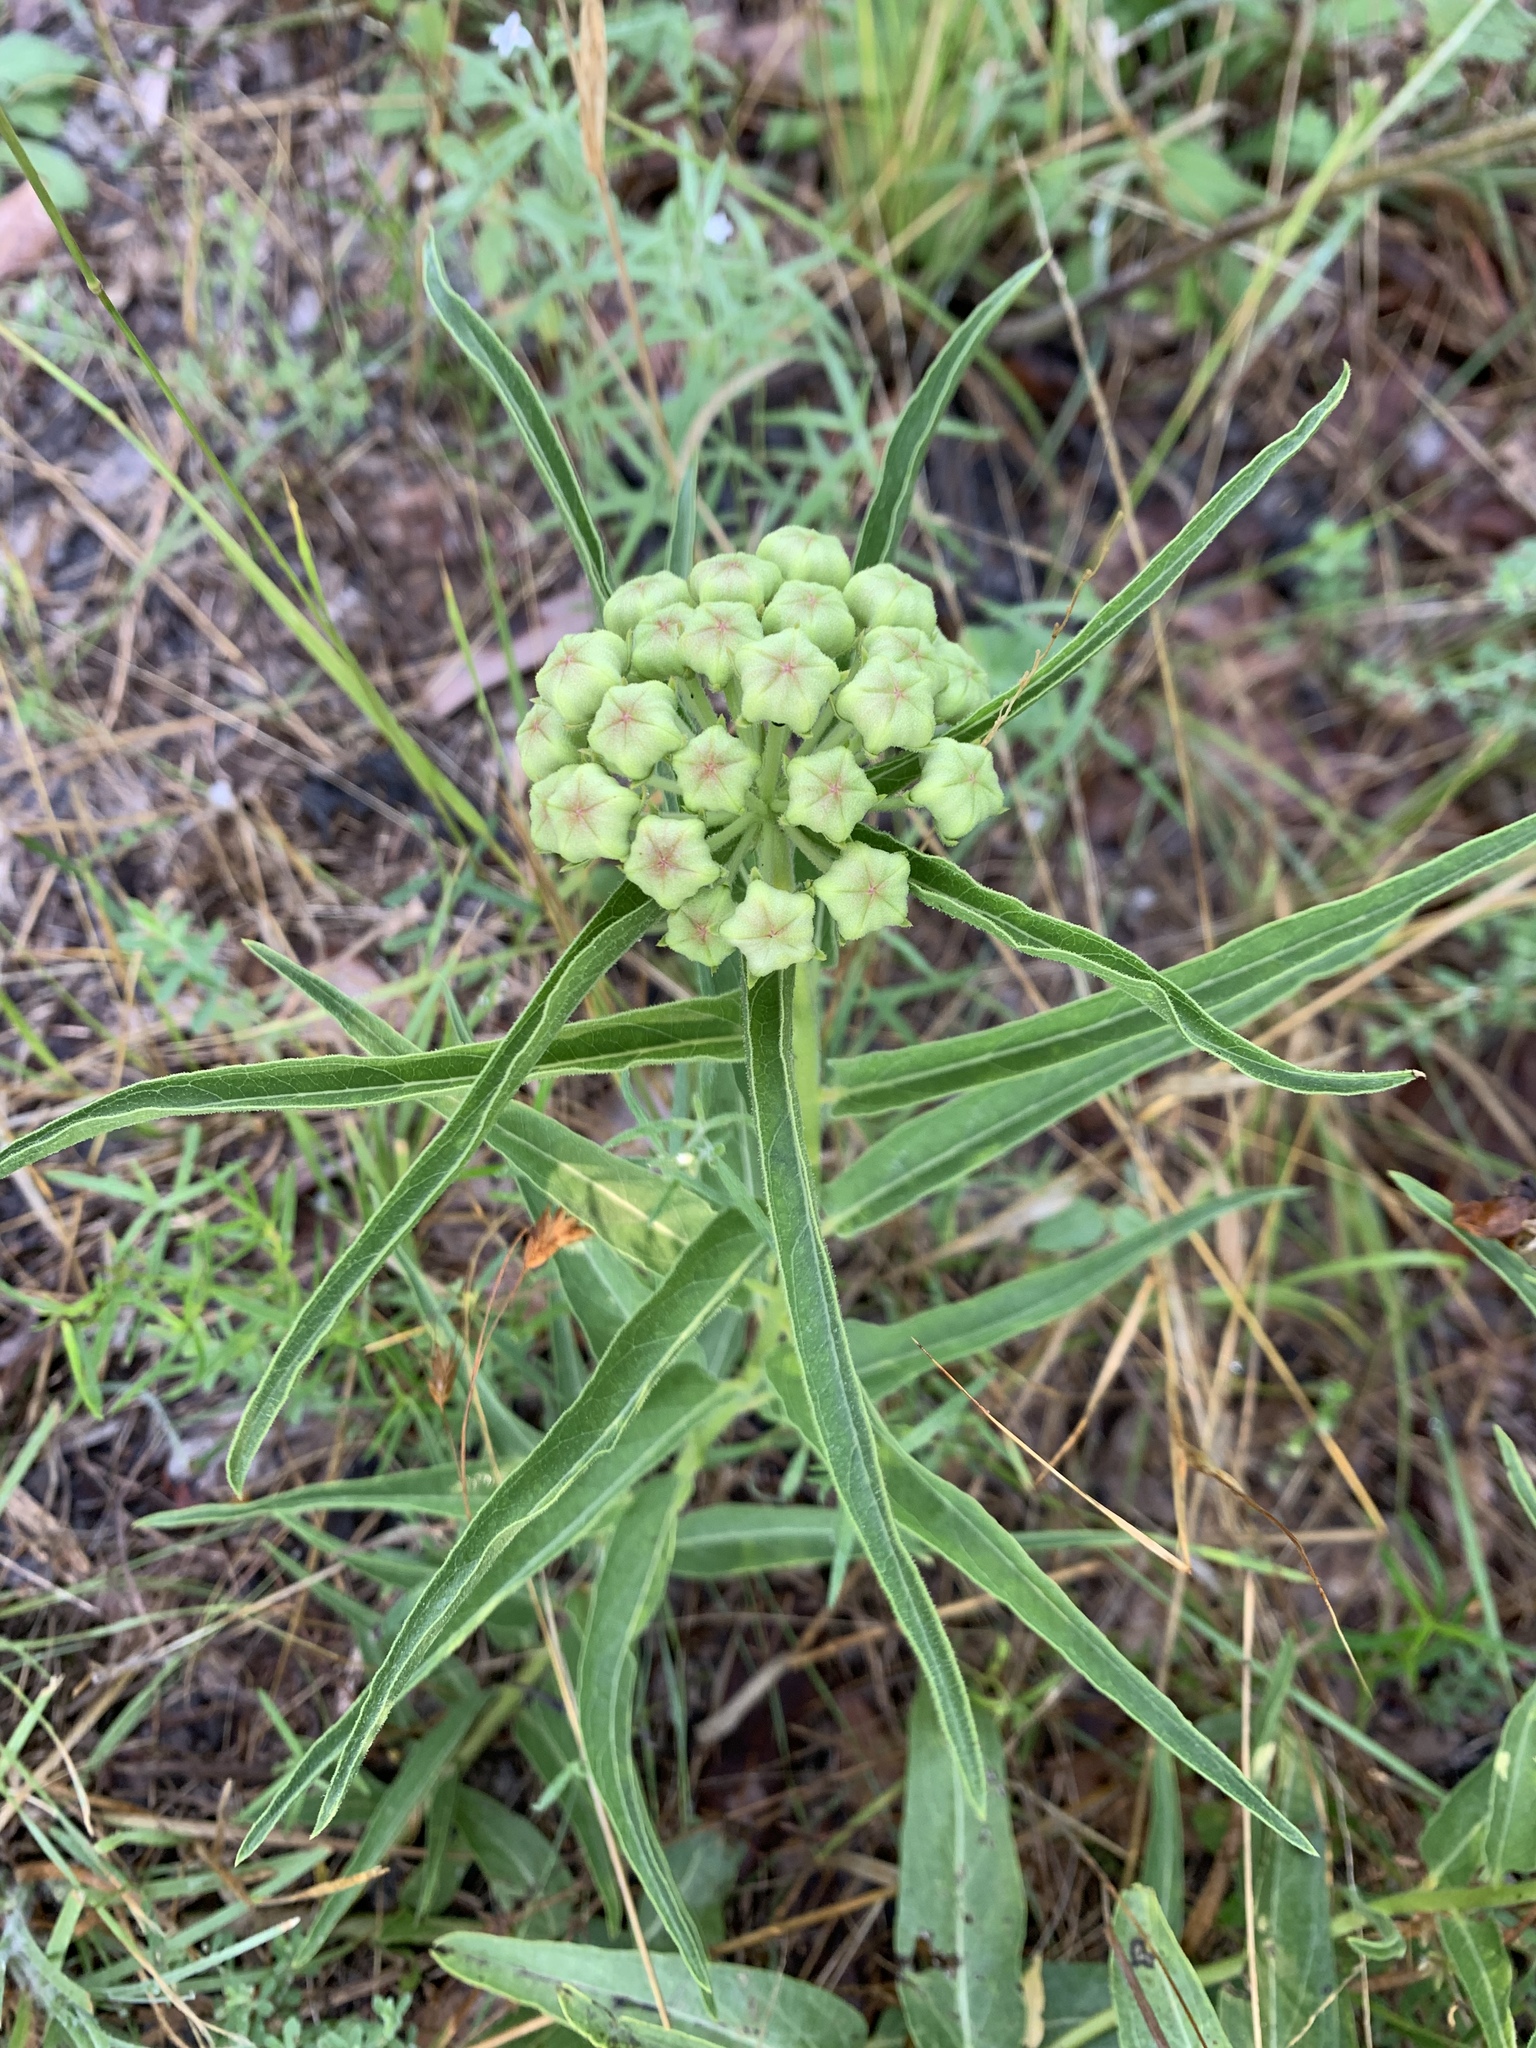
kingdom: Plantae
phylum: Tracheophyta
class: Magnoliopsida
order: Gentianales
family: Apocynaceae
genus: Asclepias
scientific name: Asclepias asperula
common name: Antelope horns
